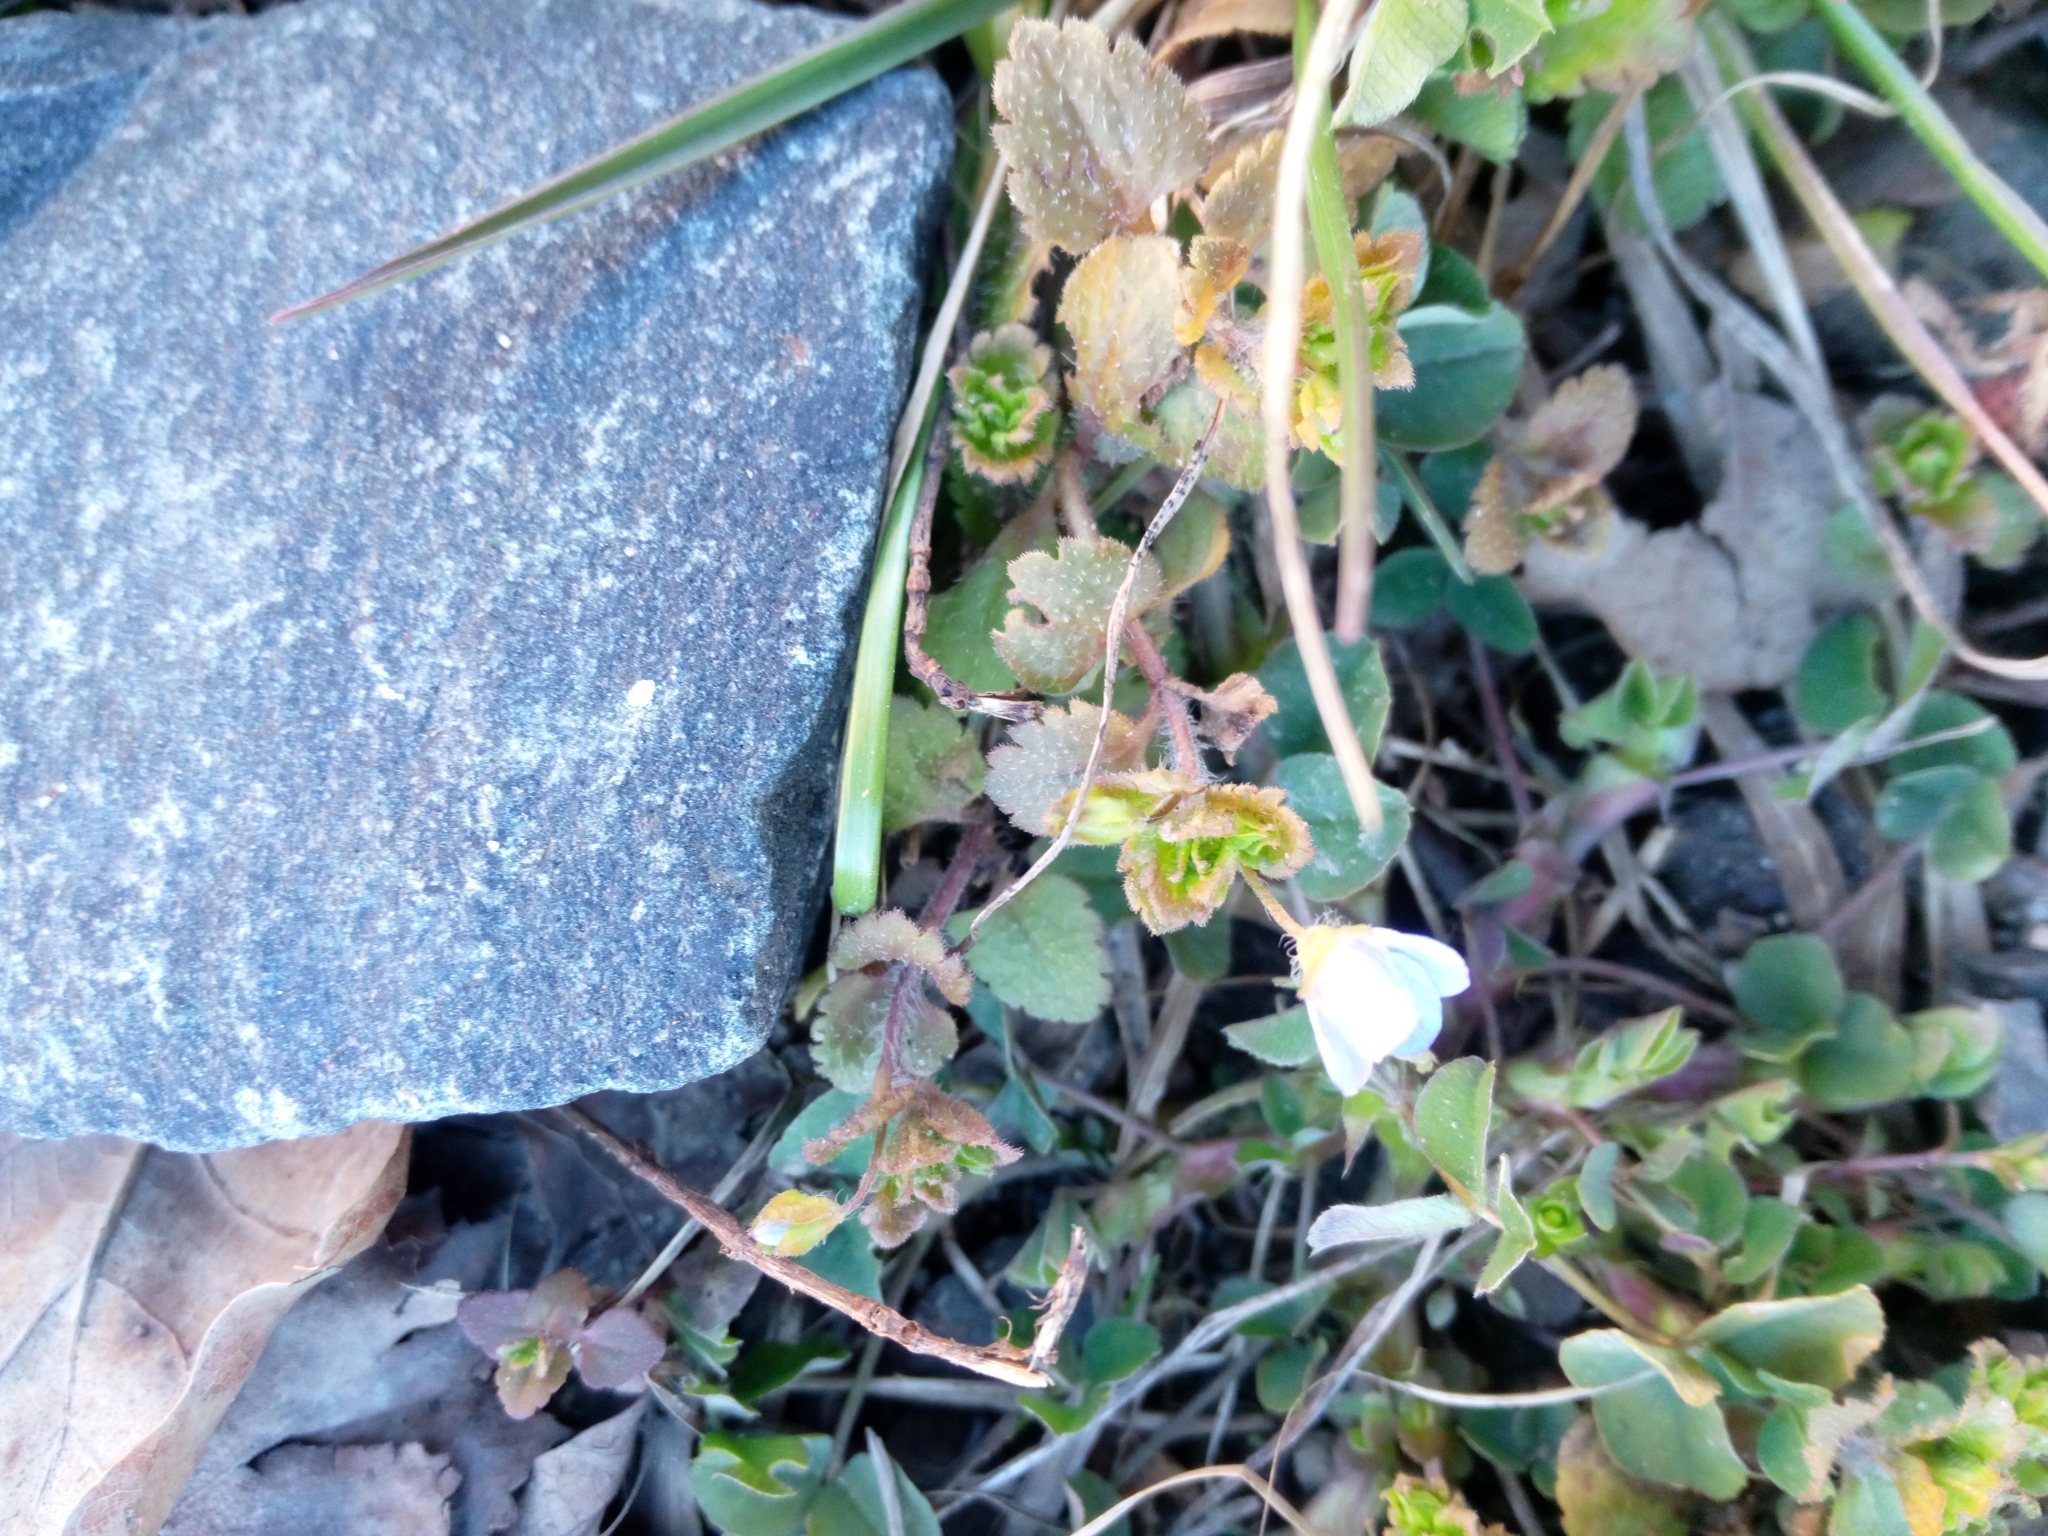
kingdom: Plantae
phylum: Tracheophyta
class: Magnoliopsida
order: Lamiales
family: Plantaginaceae
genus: Veronica
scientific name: Veronica persica
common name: Common field-speedwell
